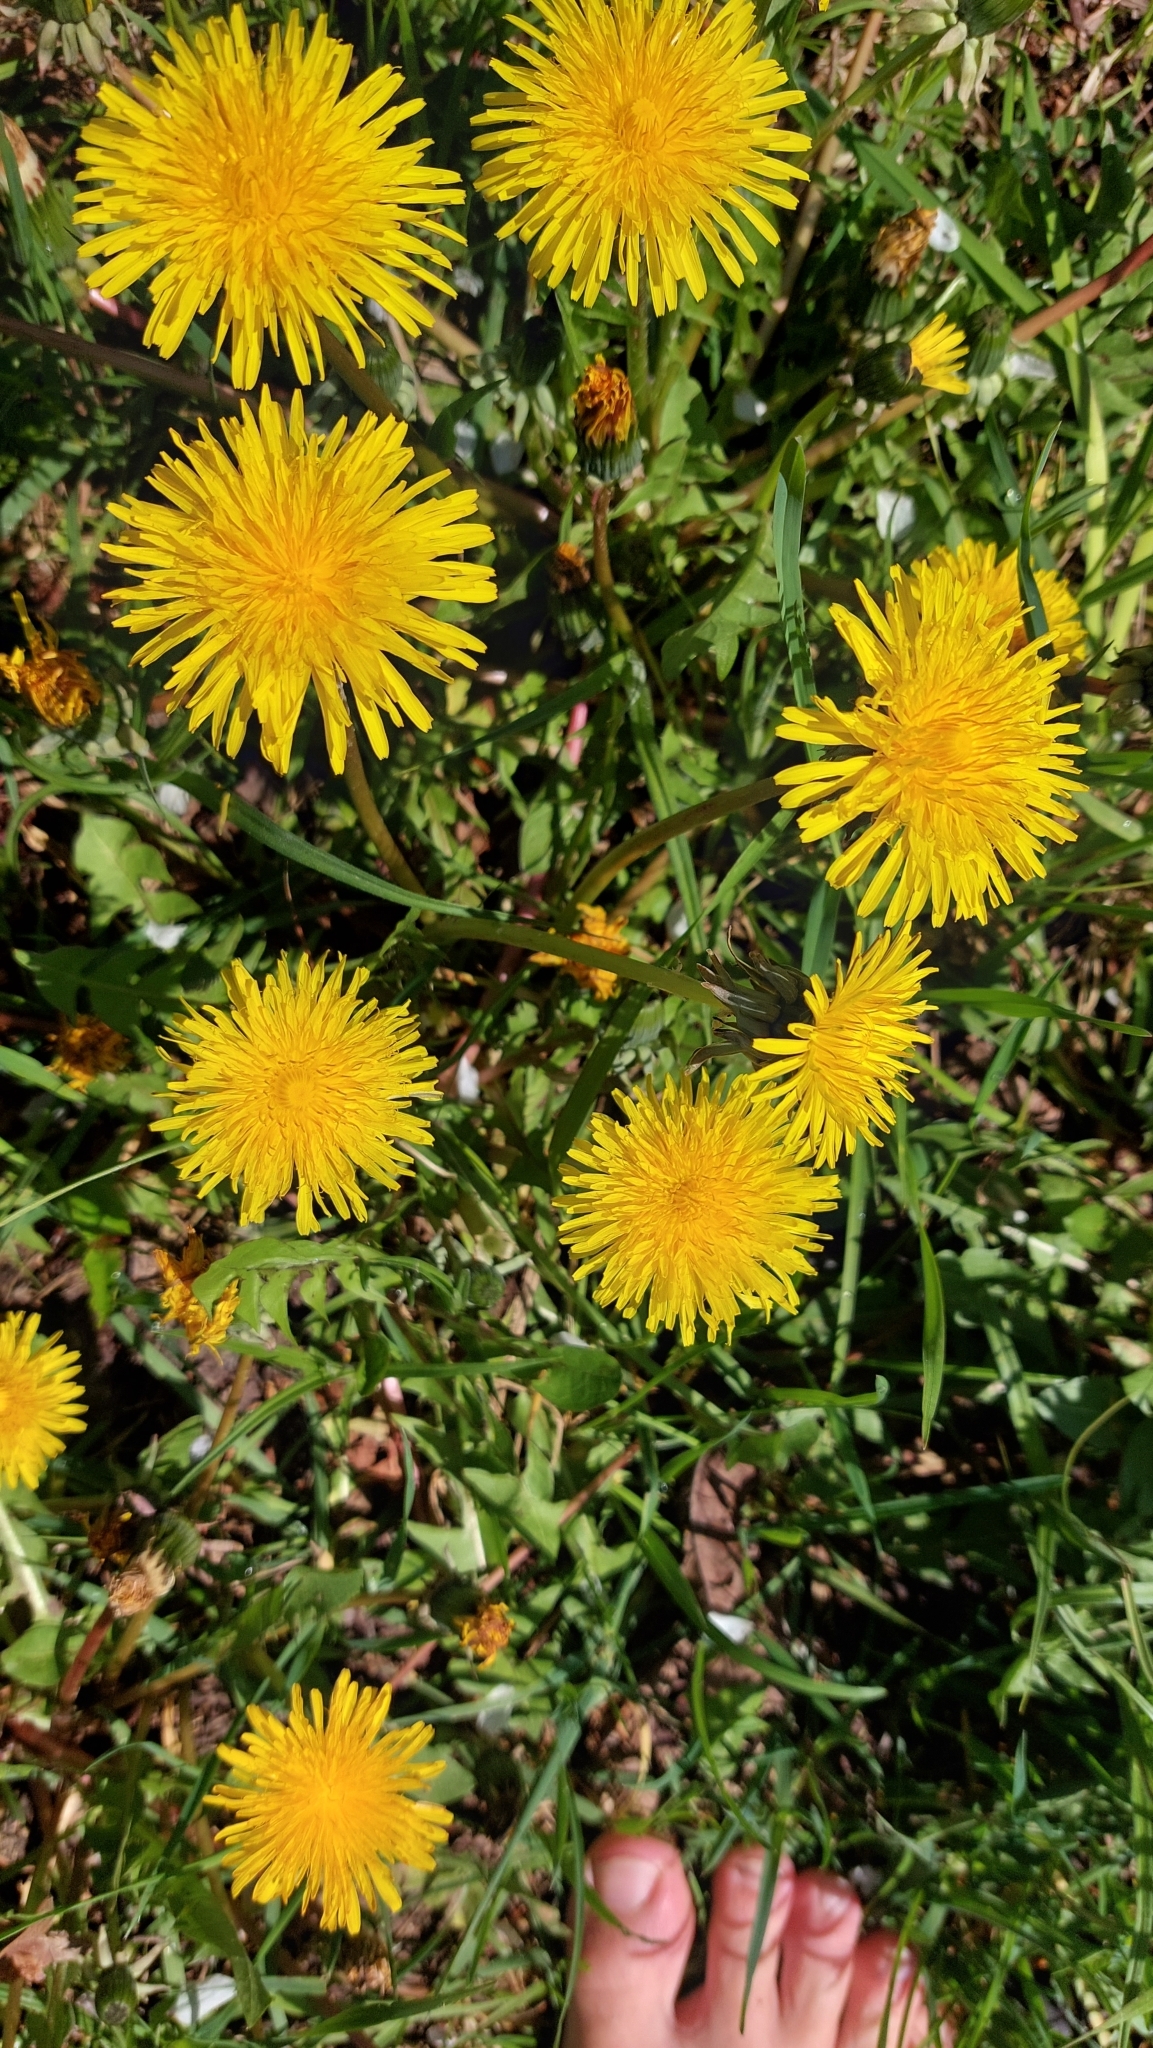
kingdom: Plantae
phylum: Tracheophyta
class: Magnoliopsida
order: Asterales
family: Asteraceae
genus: Taraxacum
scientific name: Taraxacum
